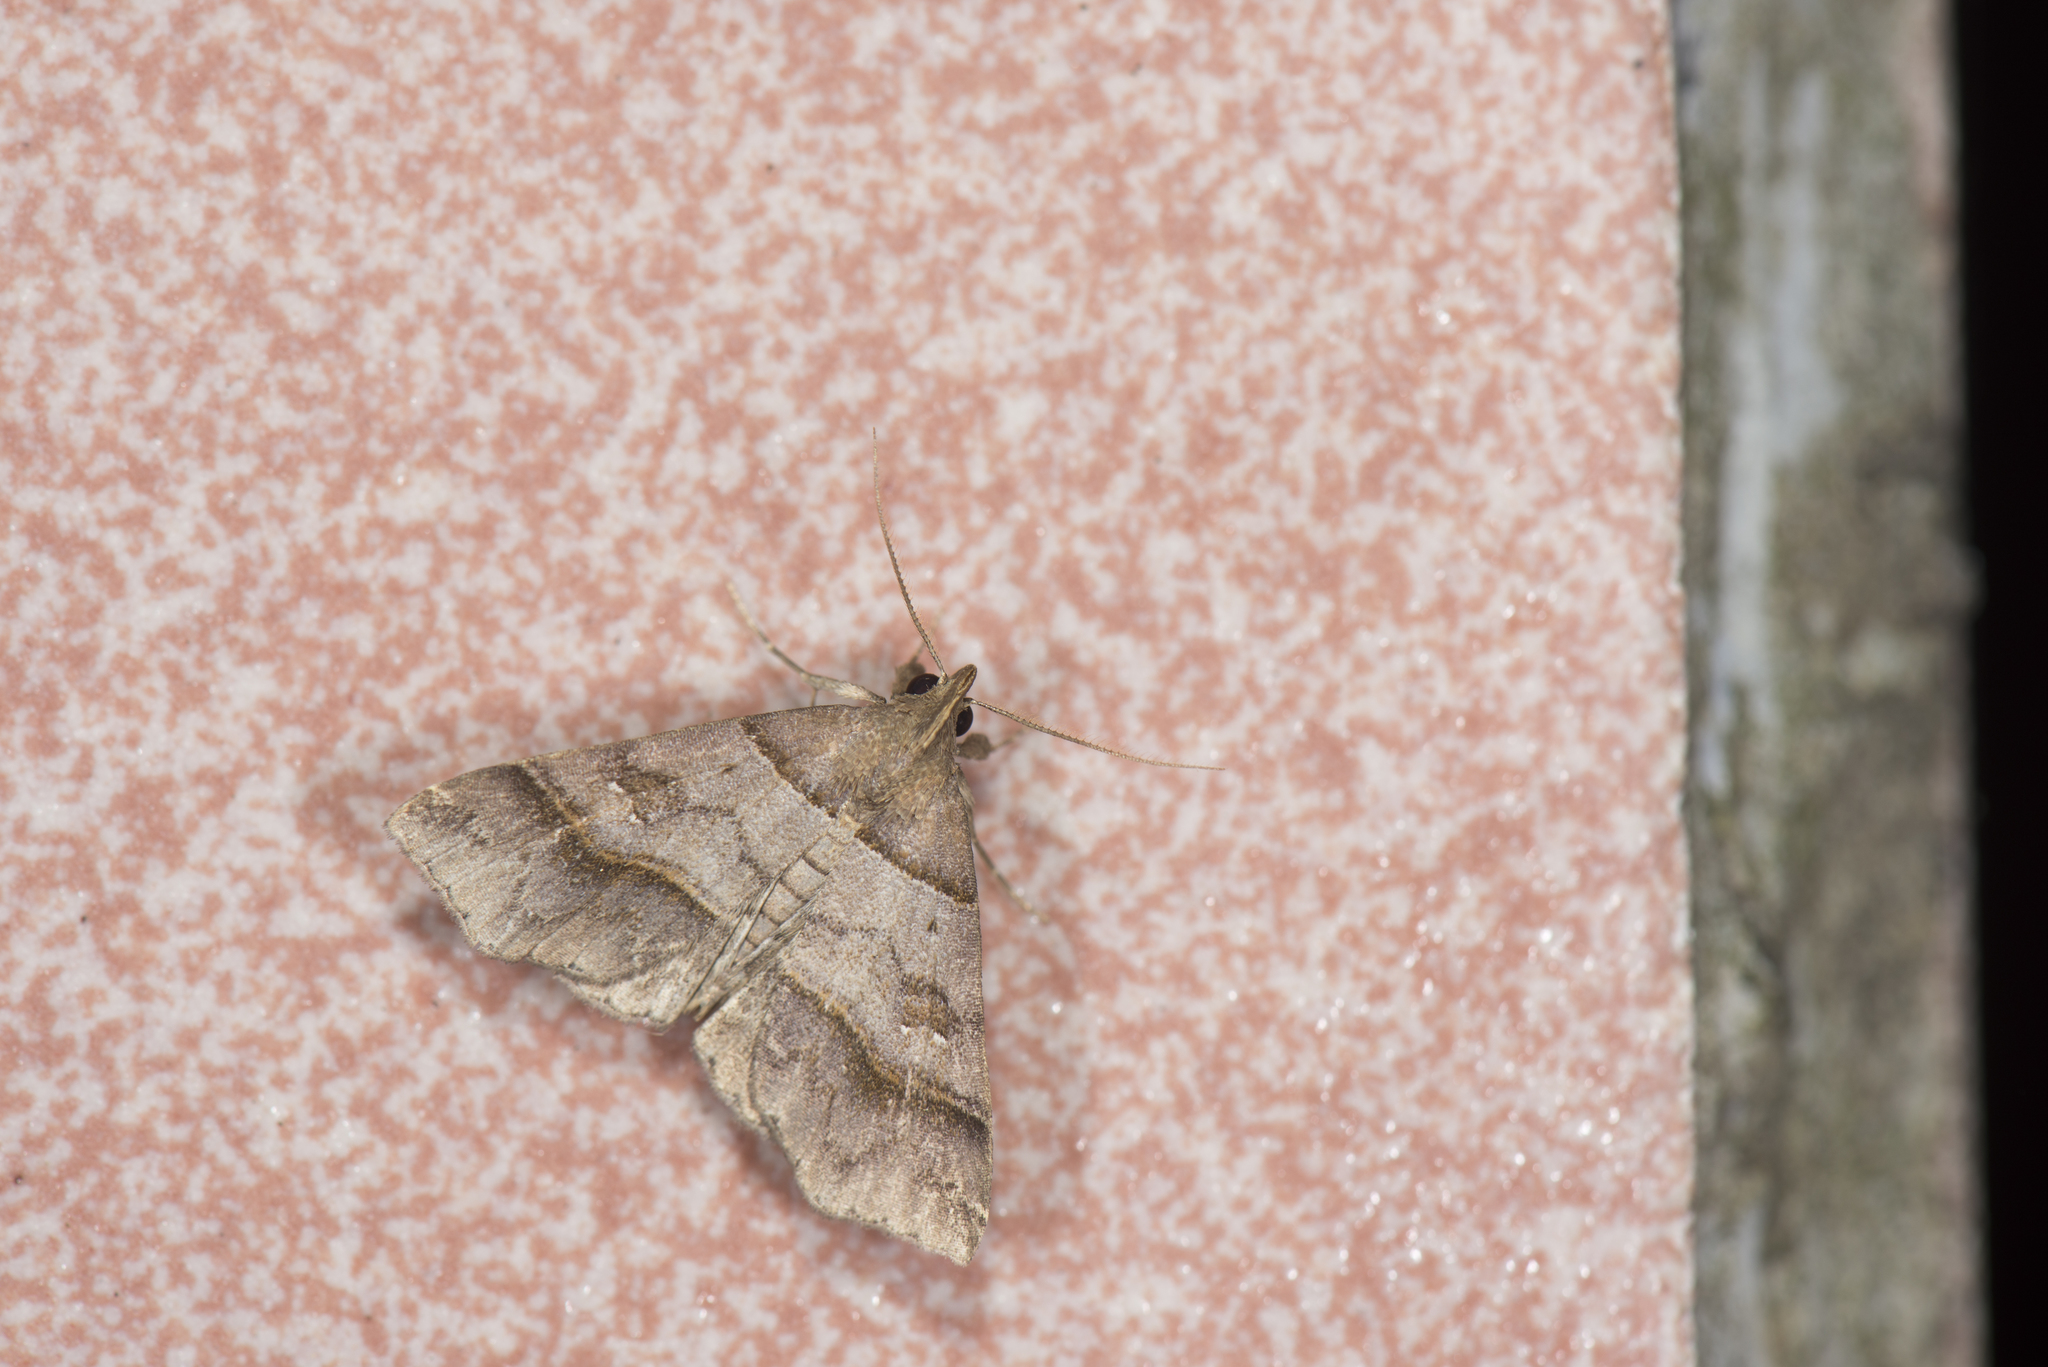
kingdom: Animalia
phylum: Arthropoda
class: Insecta
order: Lepidoptera
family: Erebidae
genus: Bertula
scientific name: Bertula kosemponica
